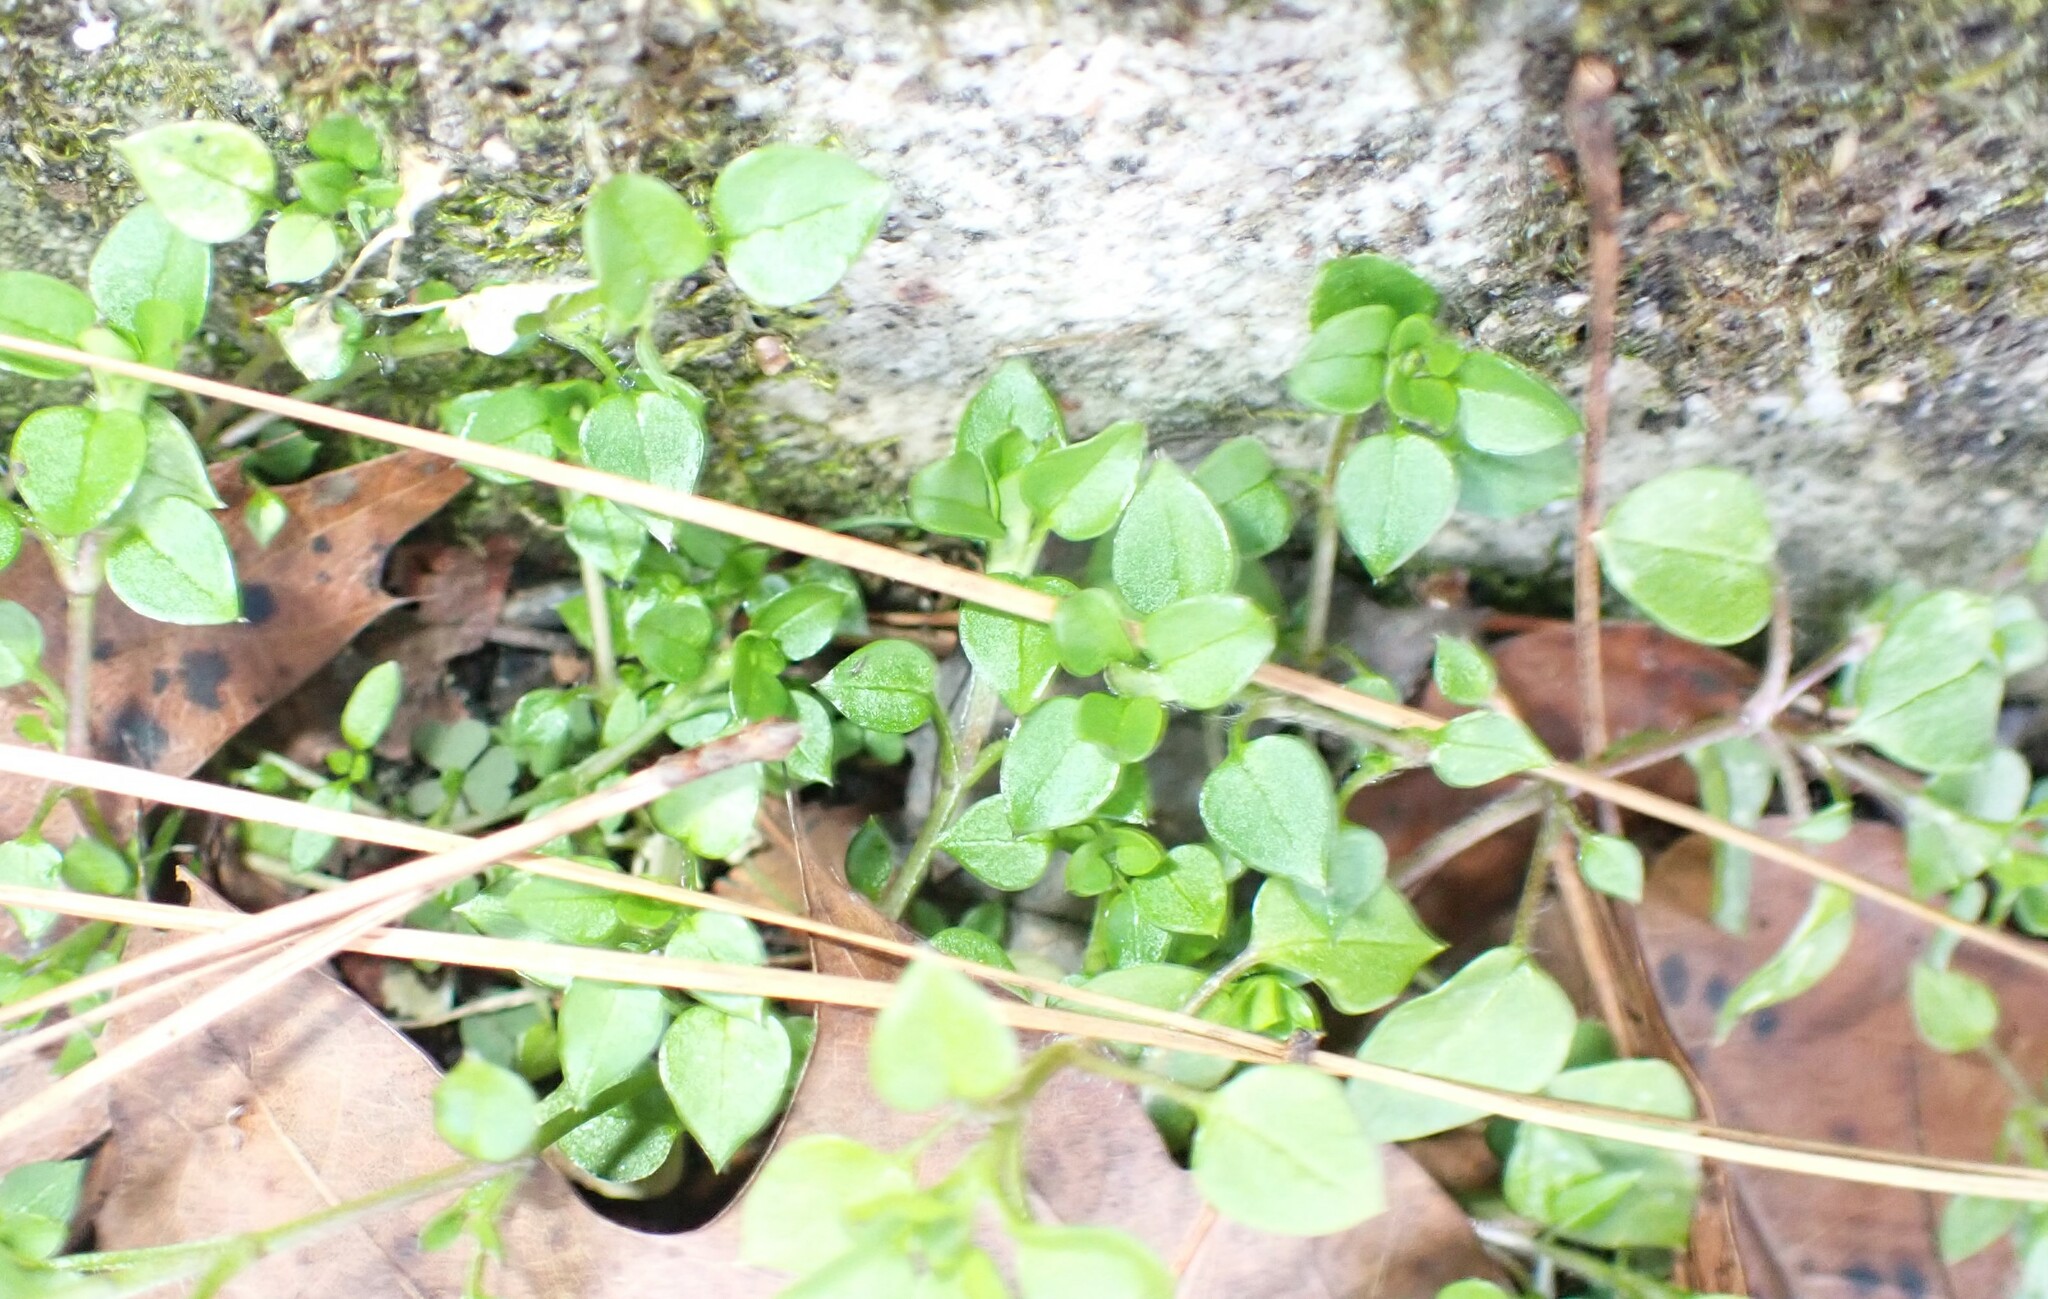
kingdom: Plantae
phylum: Tracheophyta
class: Magnoliopsida
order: Caryophyllales
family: Caryophyllaceae
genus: Stellaria
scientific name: Stellaria media
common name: Common chickweed
